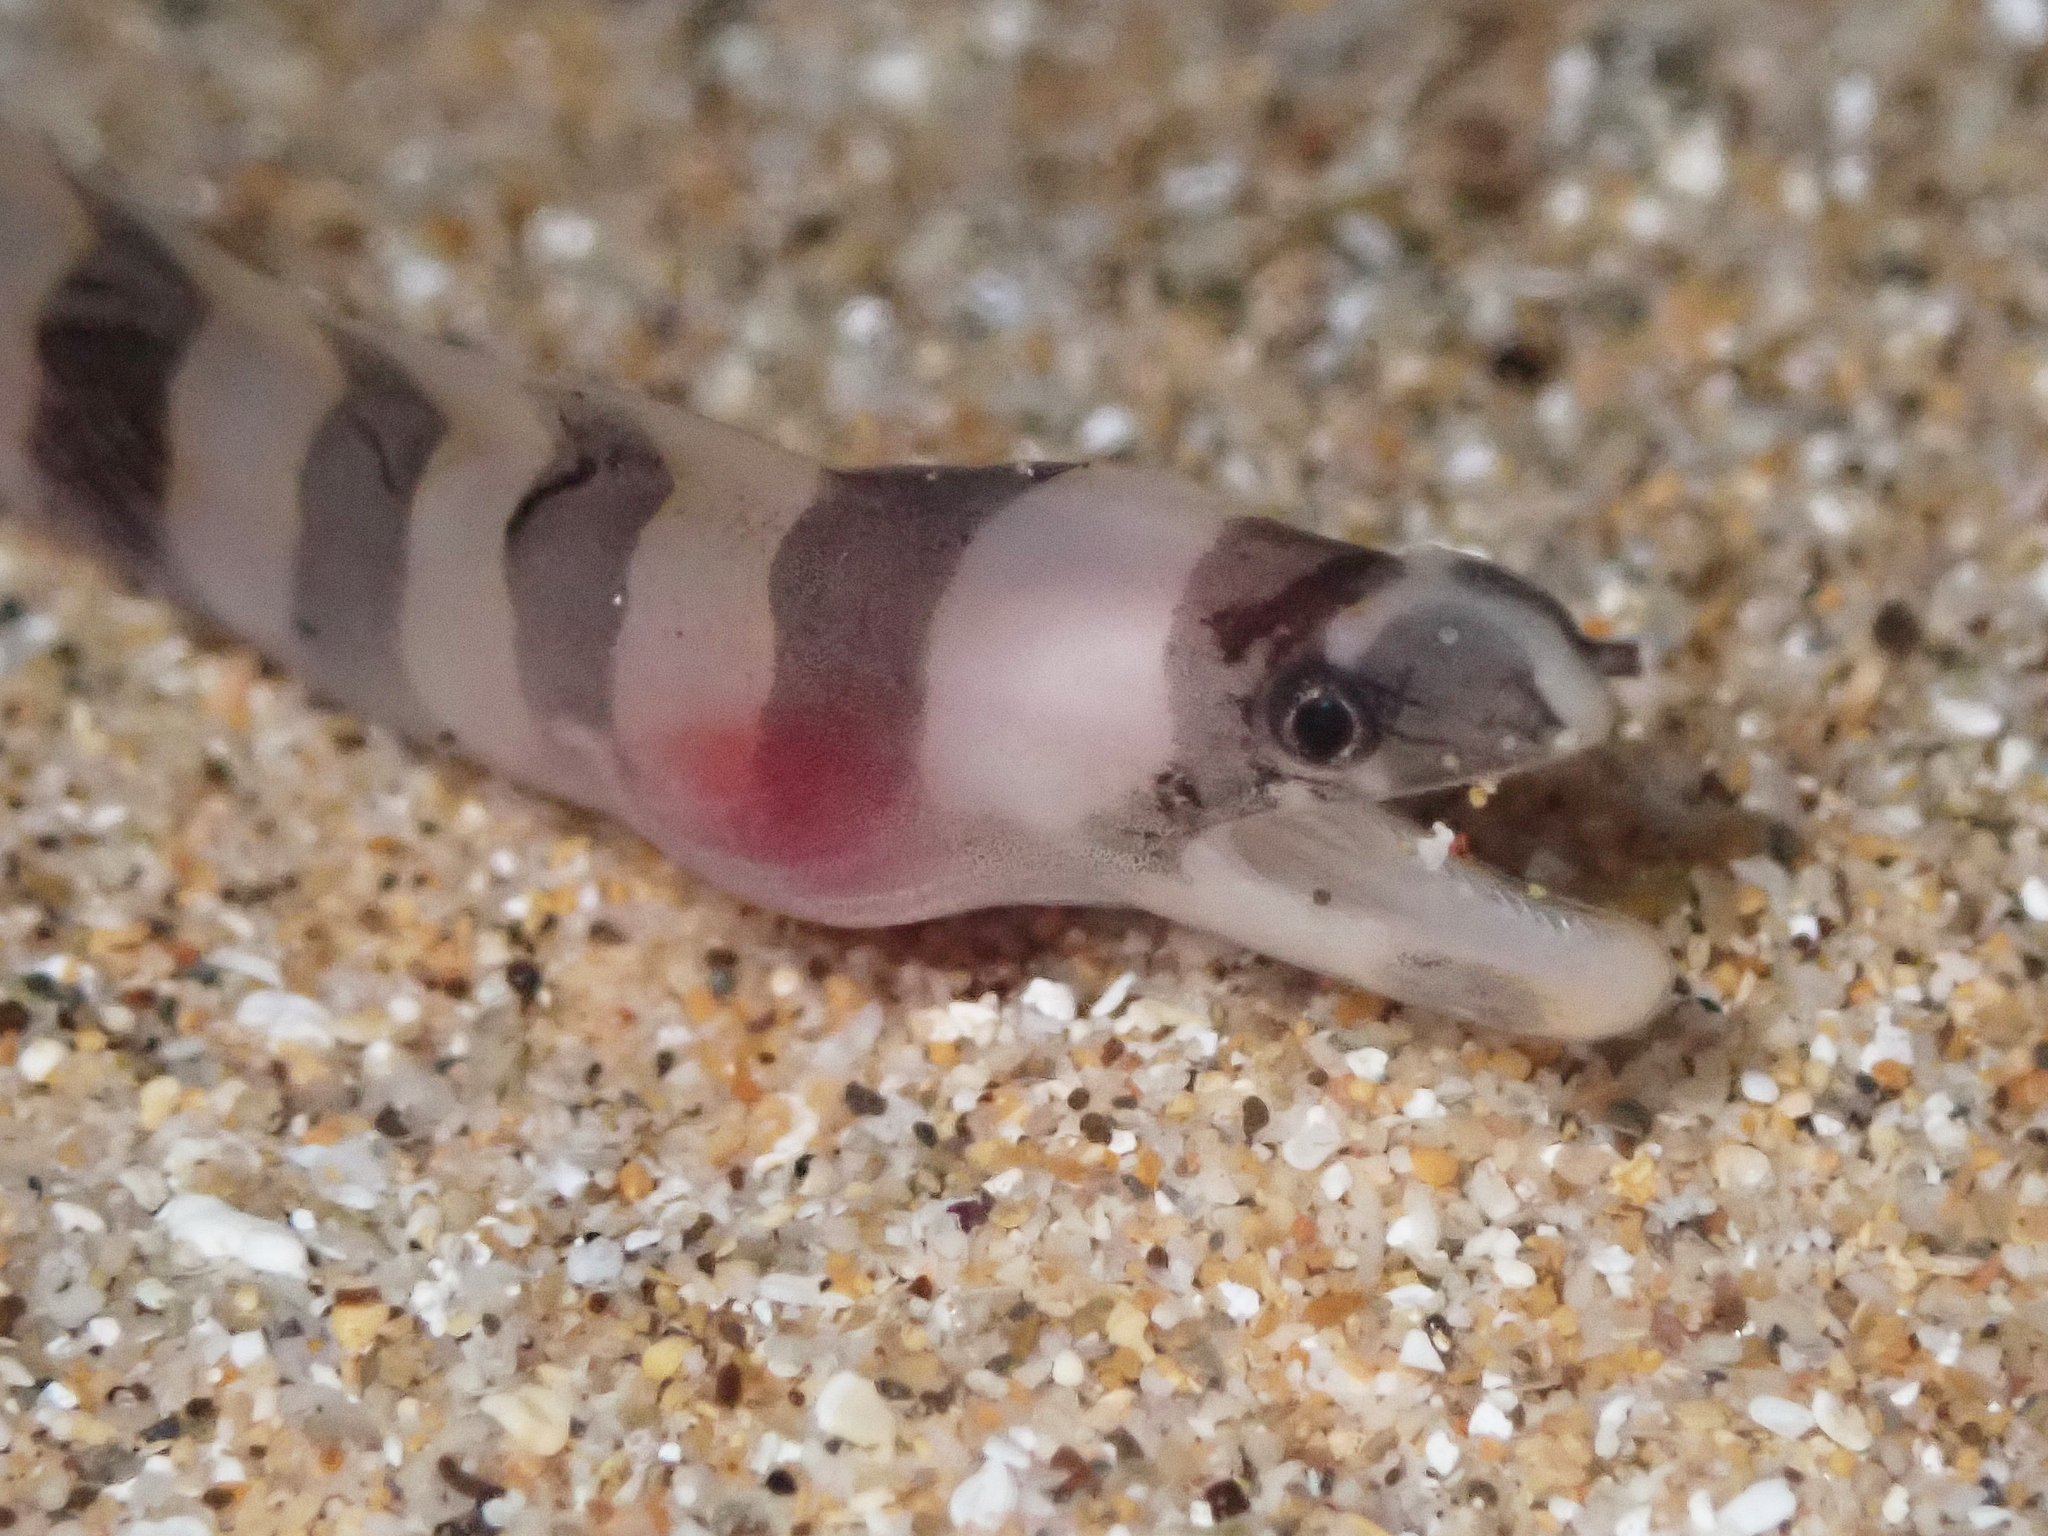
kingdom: Animalia
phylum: Chordata
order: Anguilliformes
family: Muraenidae
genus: Gymnothorax
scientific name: Gymnothorax gracilicauda
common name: Graceful-tailed moray
